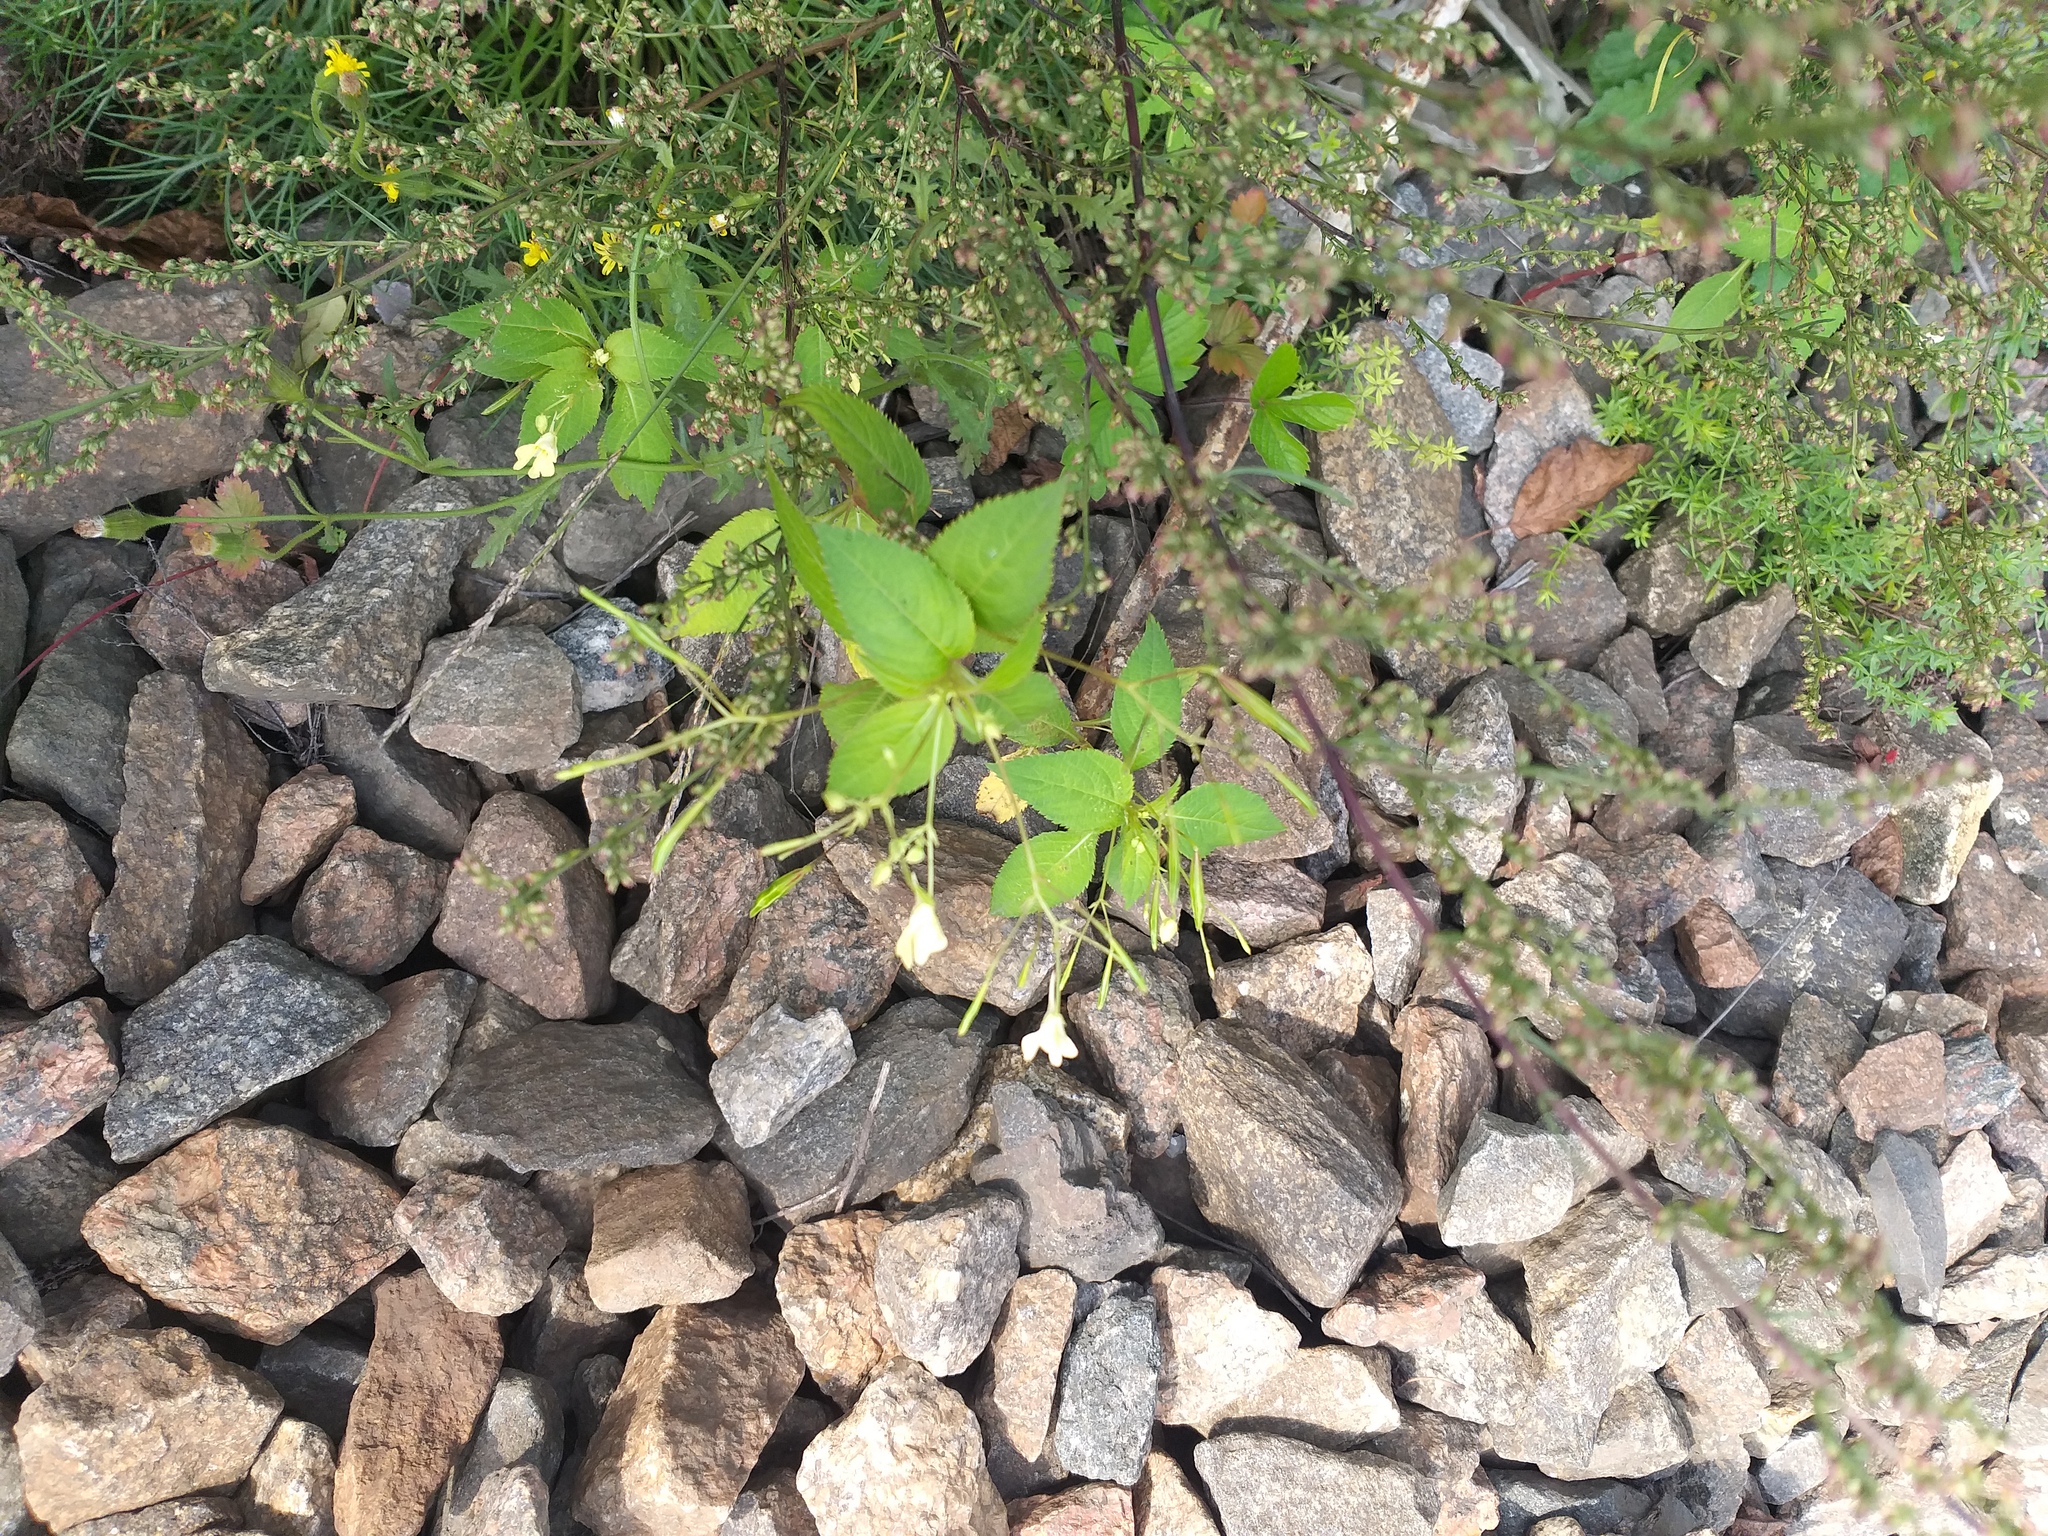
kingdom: Plantae
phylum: Tracheophyta
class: Magnoliopsida
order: Ericales
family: Balsaminaceae
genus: Impatiens
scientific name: Impatiens parviflora
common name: Small balsam
